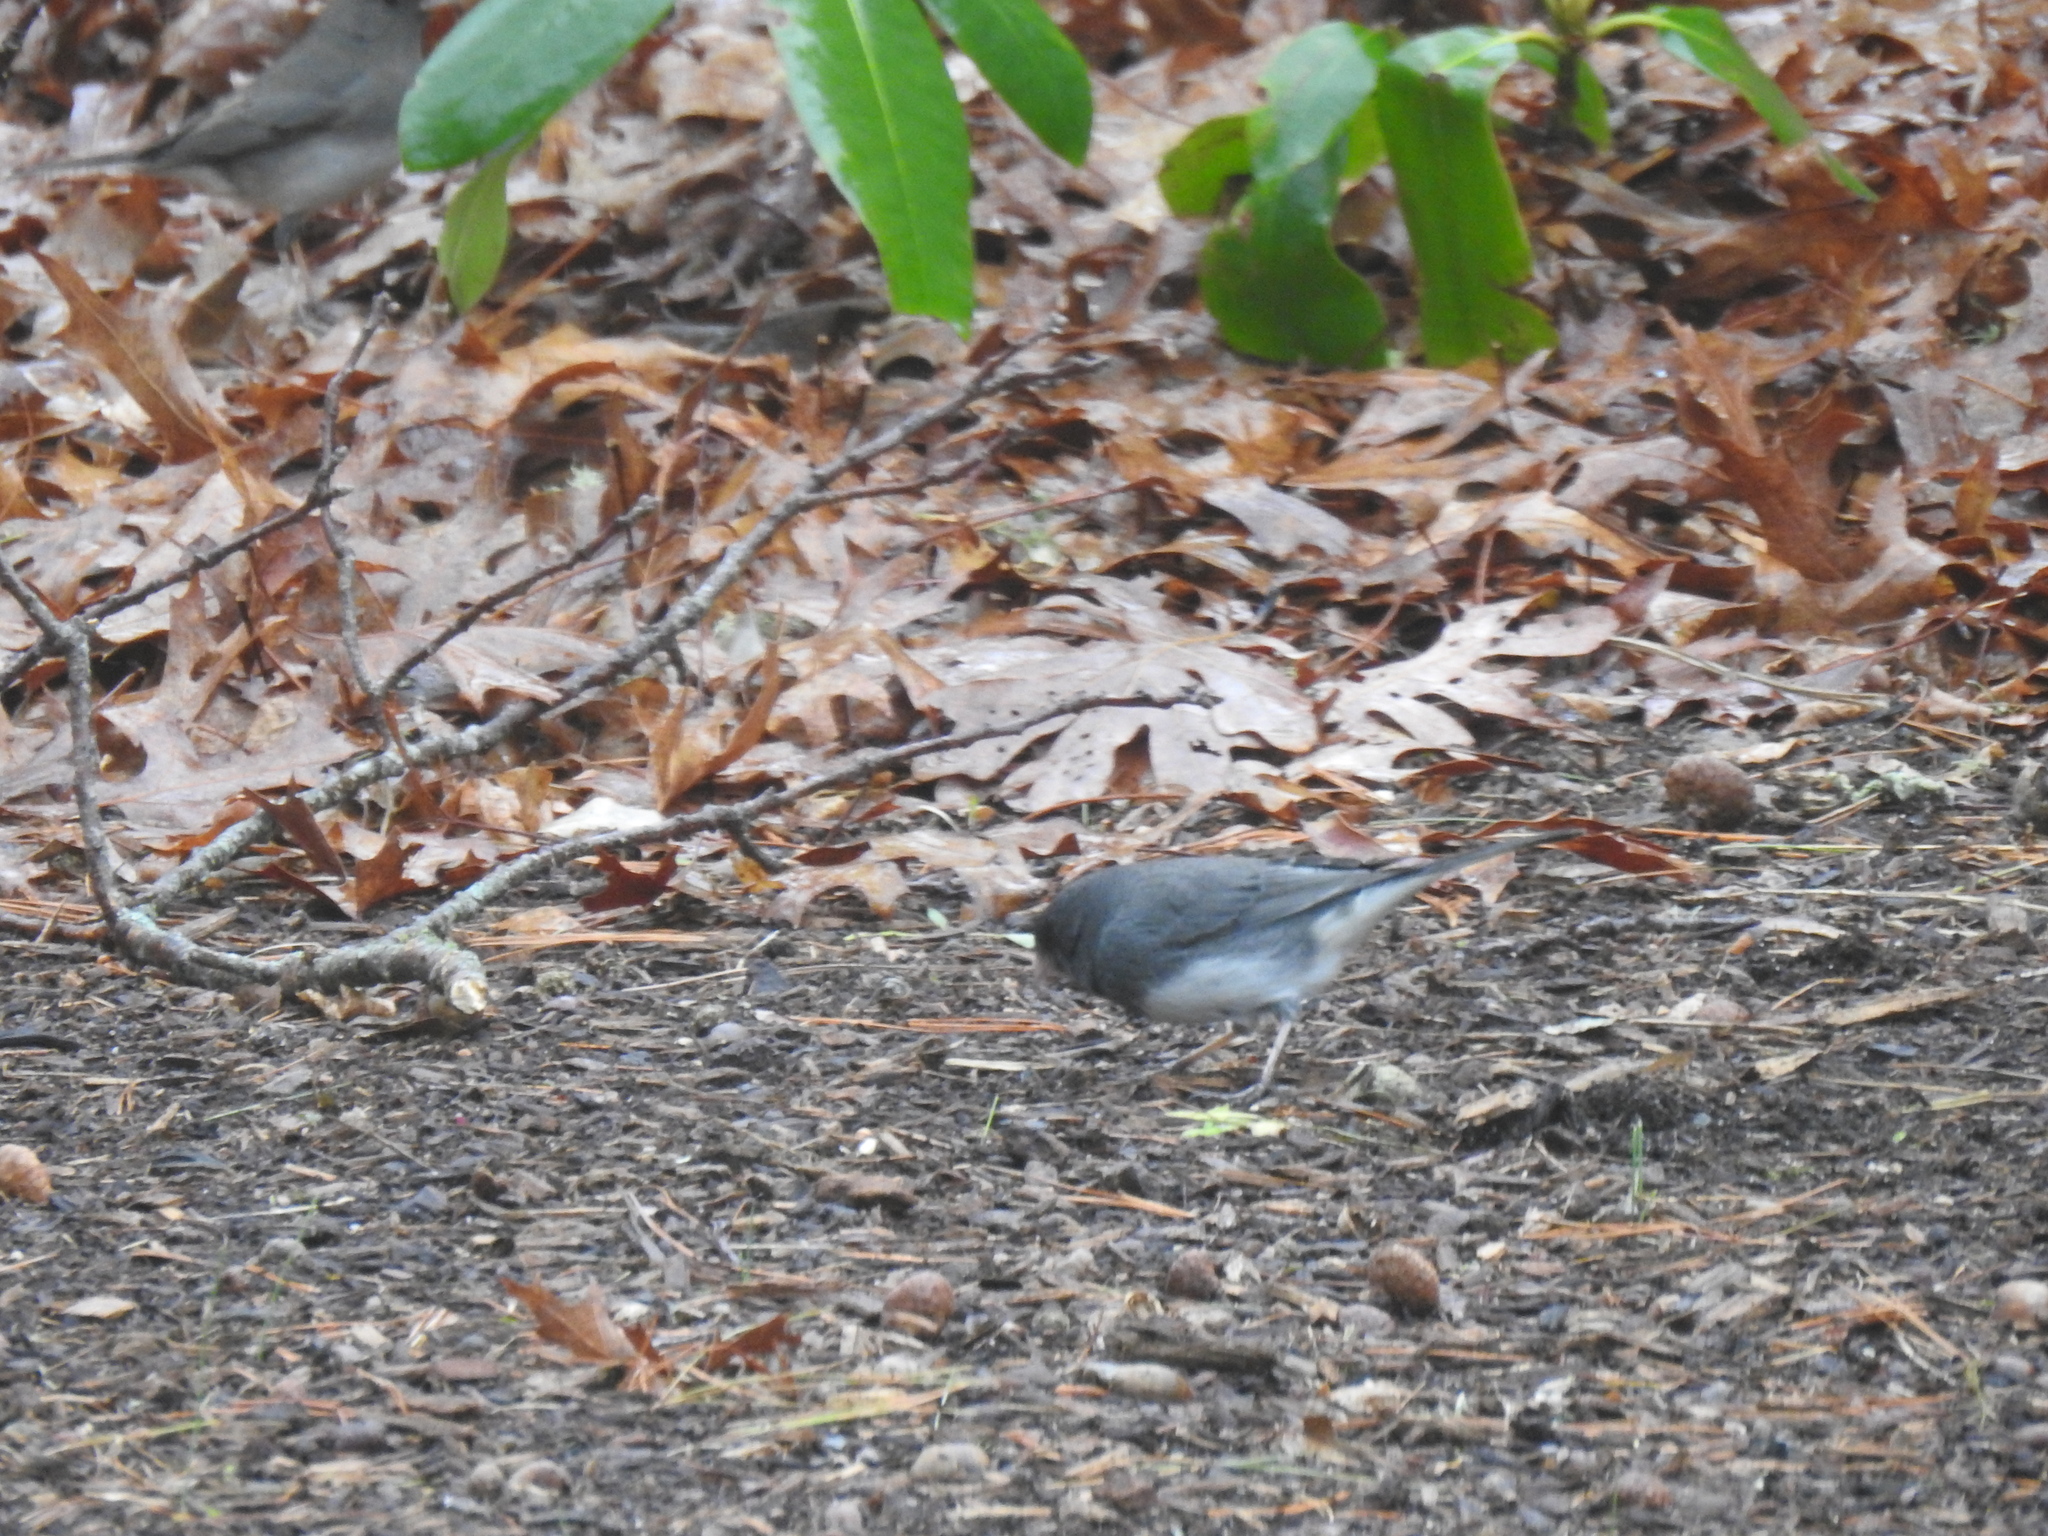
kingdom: Animalia
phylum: Chordata
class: Aves
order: Passeriformes
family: Passerellidae
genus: Junco
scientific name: Junco hyemalis
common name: Dark-eyed junco
